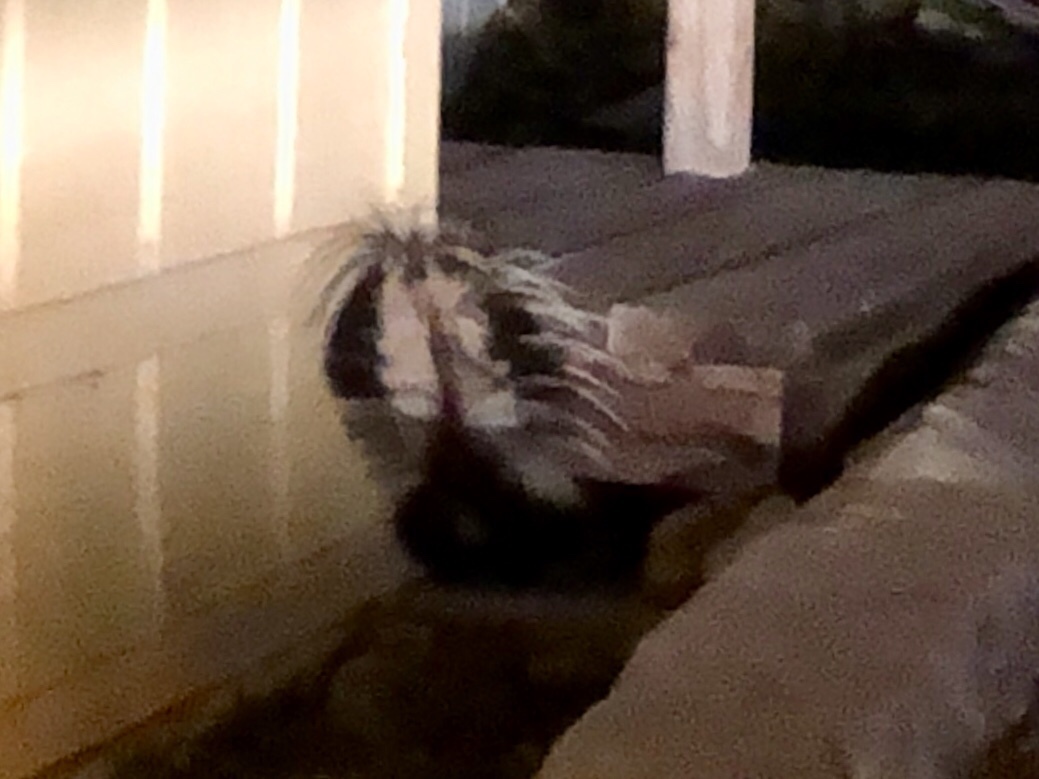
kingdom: Animalia
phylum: Chordata
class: Mammalia
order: Carnivora
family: Mephitidae
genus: Mephitis
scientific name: Mephitis mephitis
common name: Striped skunk
